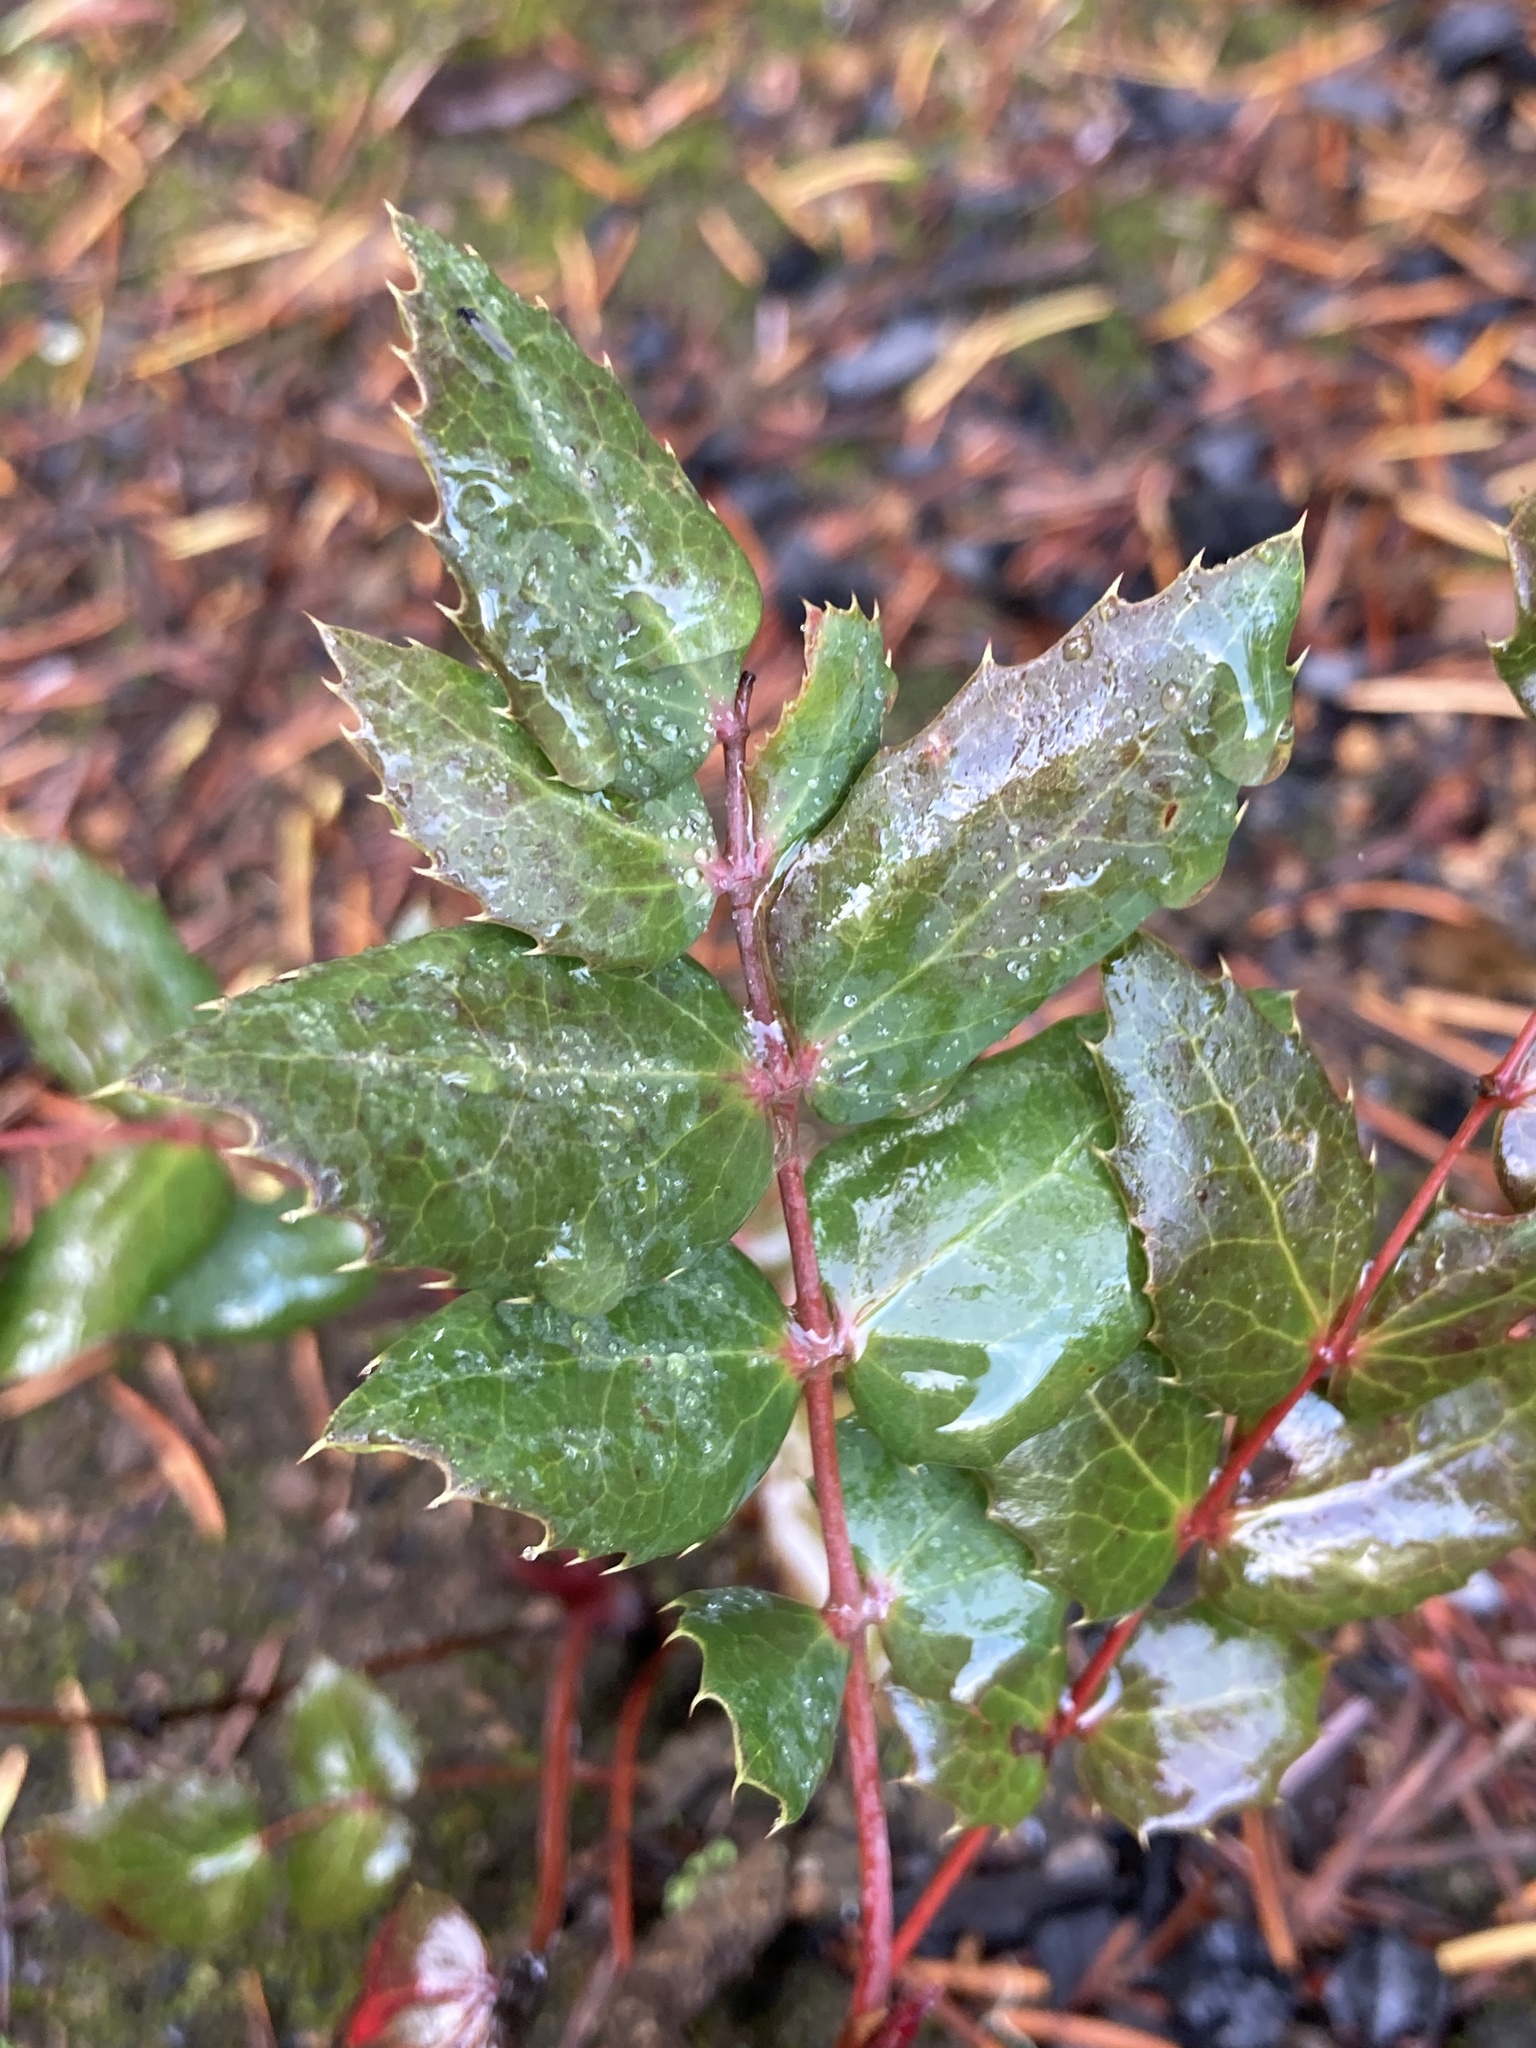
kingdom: Plantae
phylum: Tracheophyta
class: Magnoliopsida
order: Ranunculales
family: Berberidaceae
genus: Mahonia
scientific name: Mahonia nervosa
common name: Cascade oregon-grape
